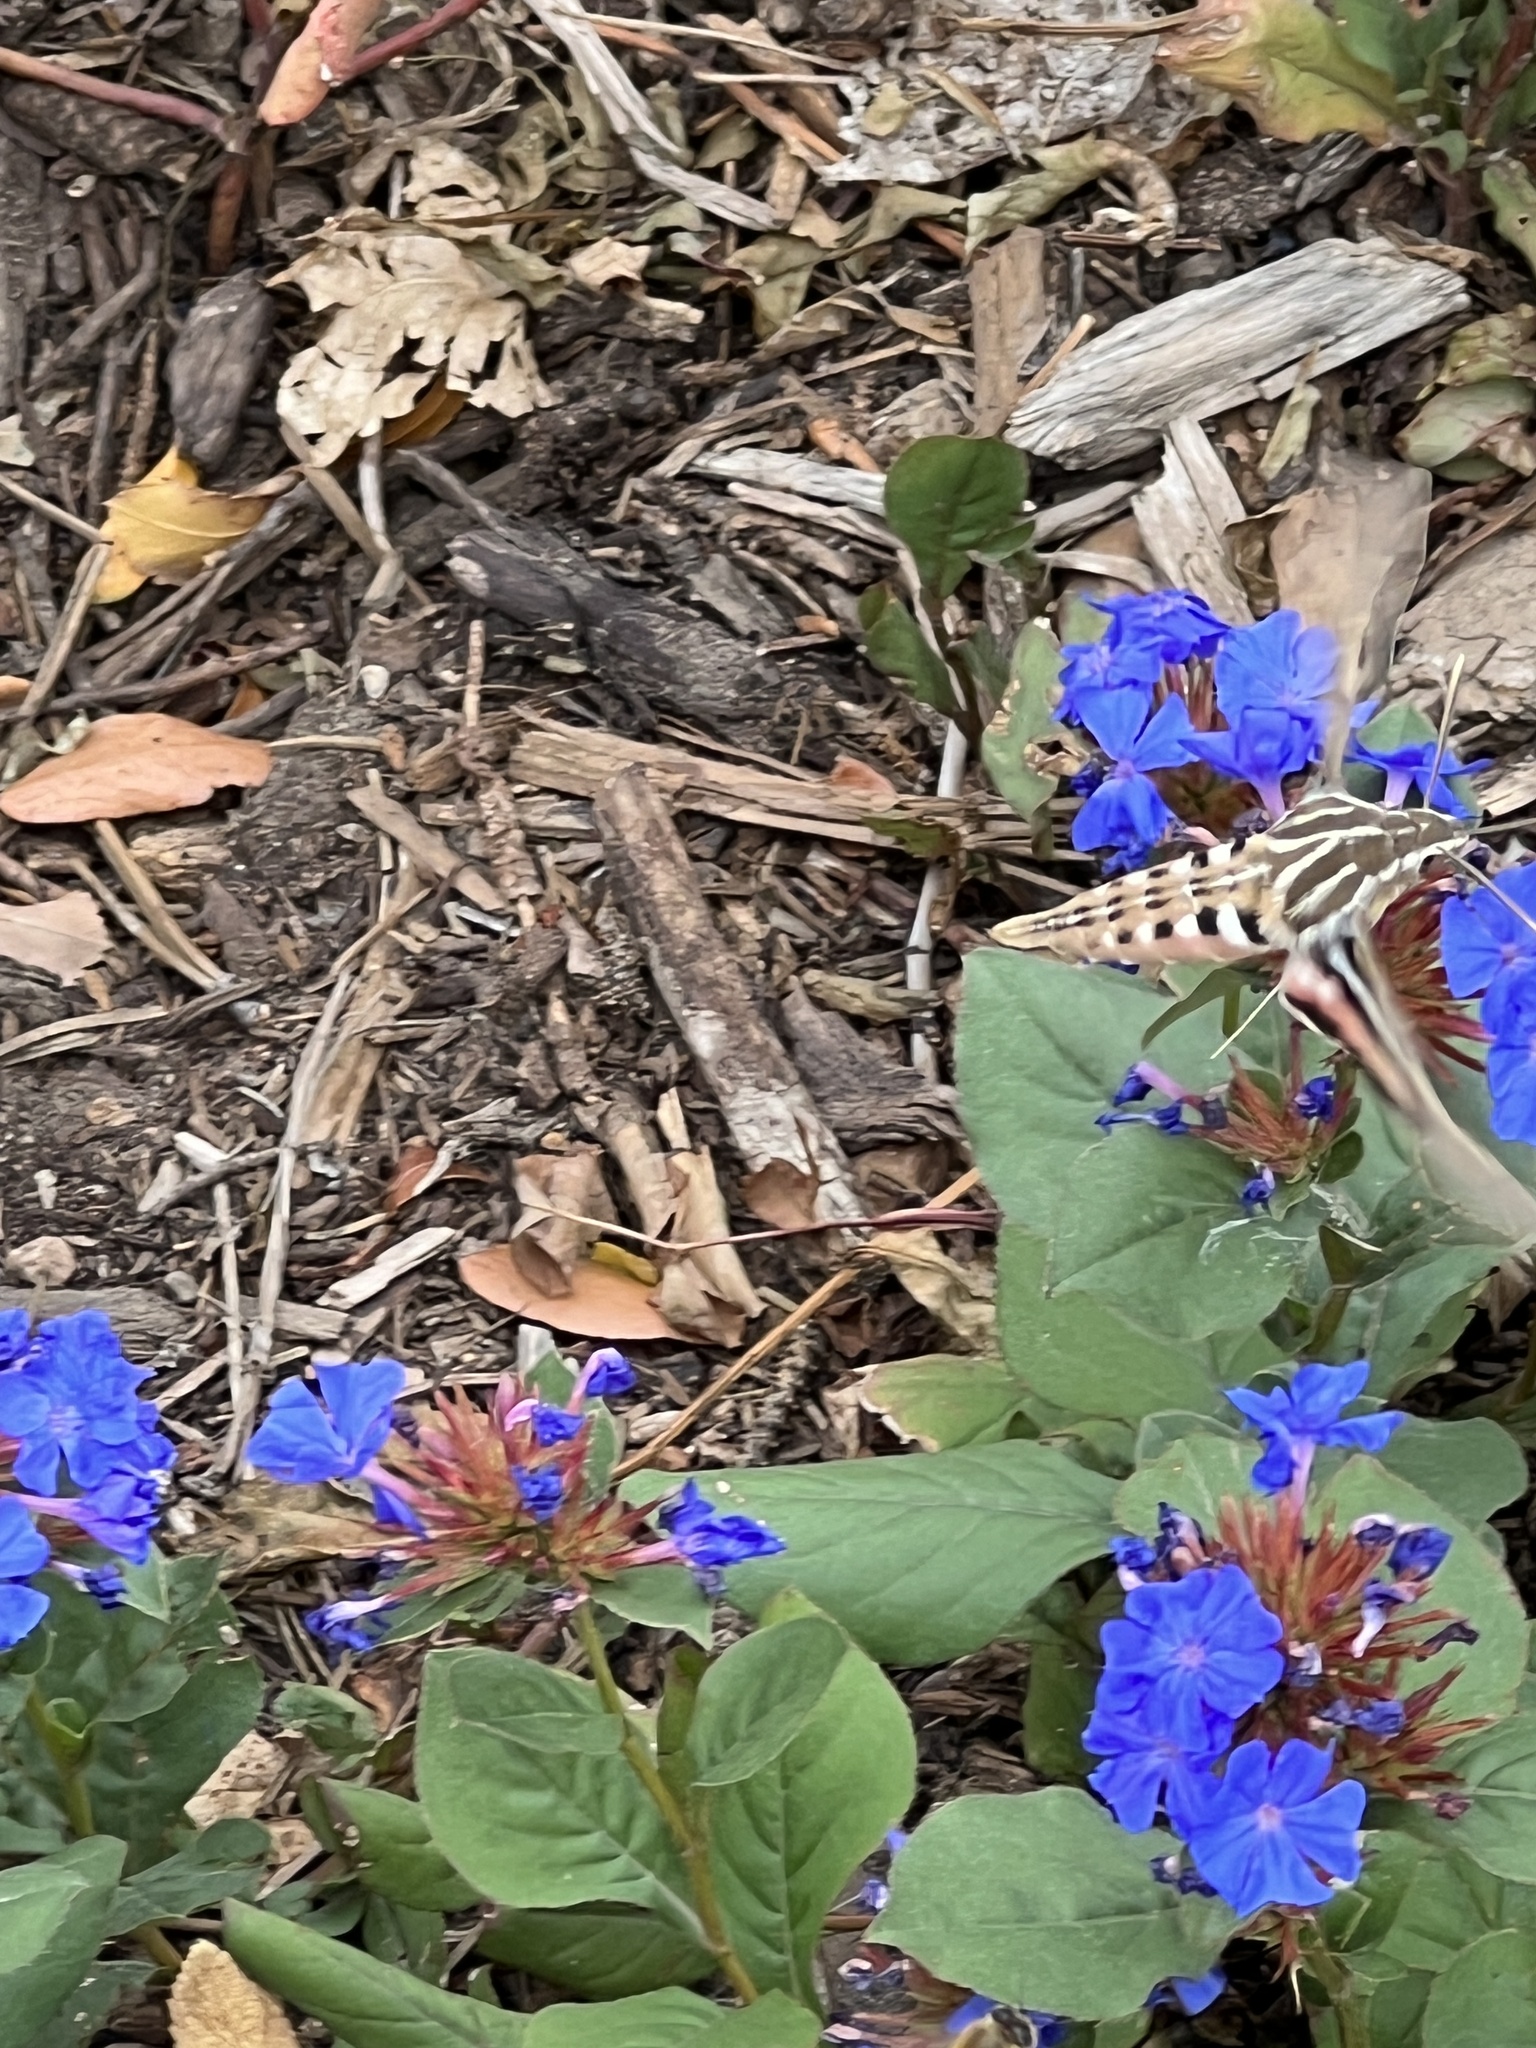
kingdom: Animalia
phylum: Arthropoda
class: Insecta
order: Lepidoptera
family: Sphingidae
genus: Hyles
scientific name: Hyles lineata
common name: White-lined sphinx
